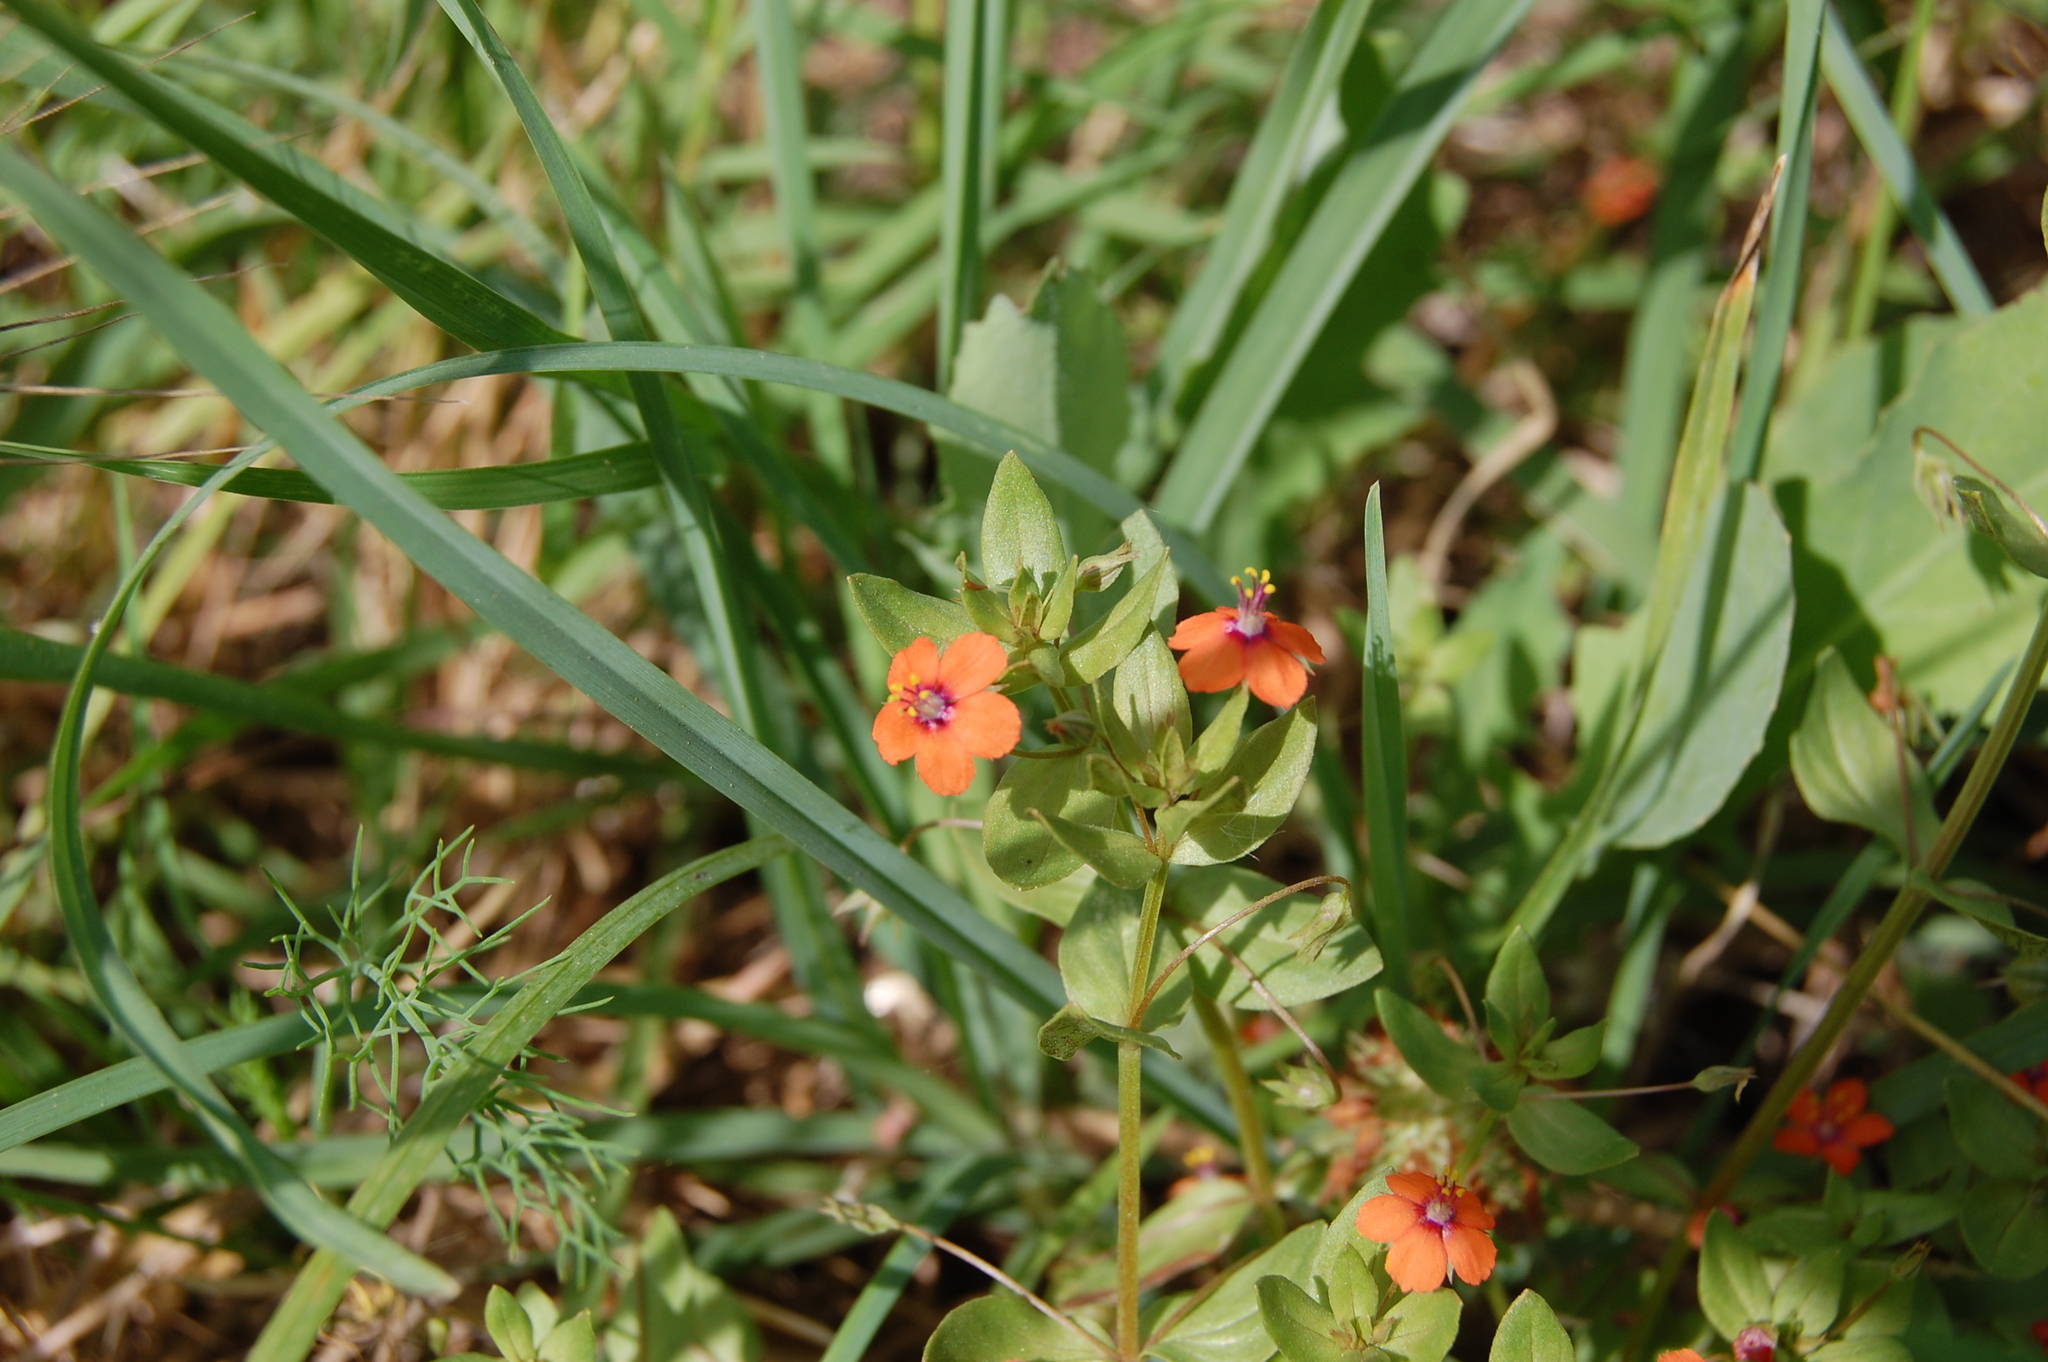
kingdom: Plantae
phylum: Tracheophyta
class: Magnoliopsida
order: Ericales
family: Primulaceae
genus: Lysimachia
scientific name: Lysimachia arvensis
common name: Scarlet pimpernel
